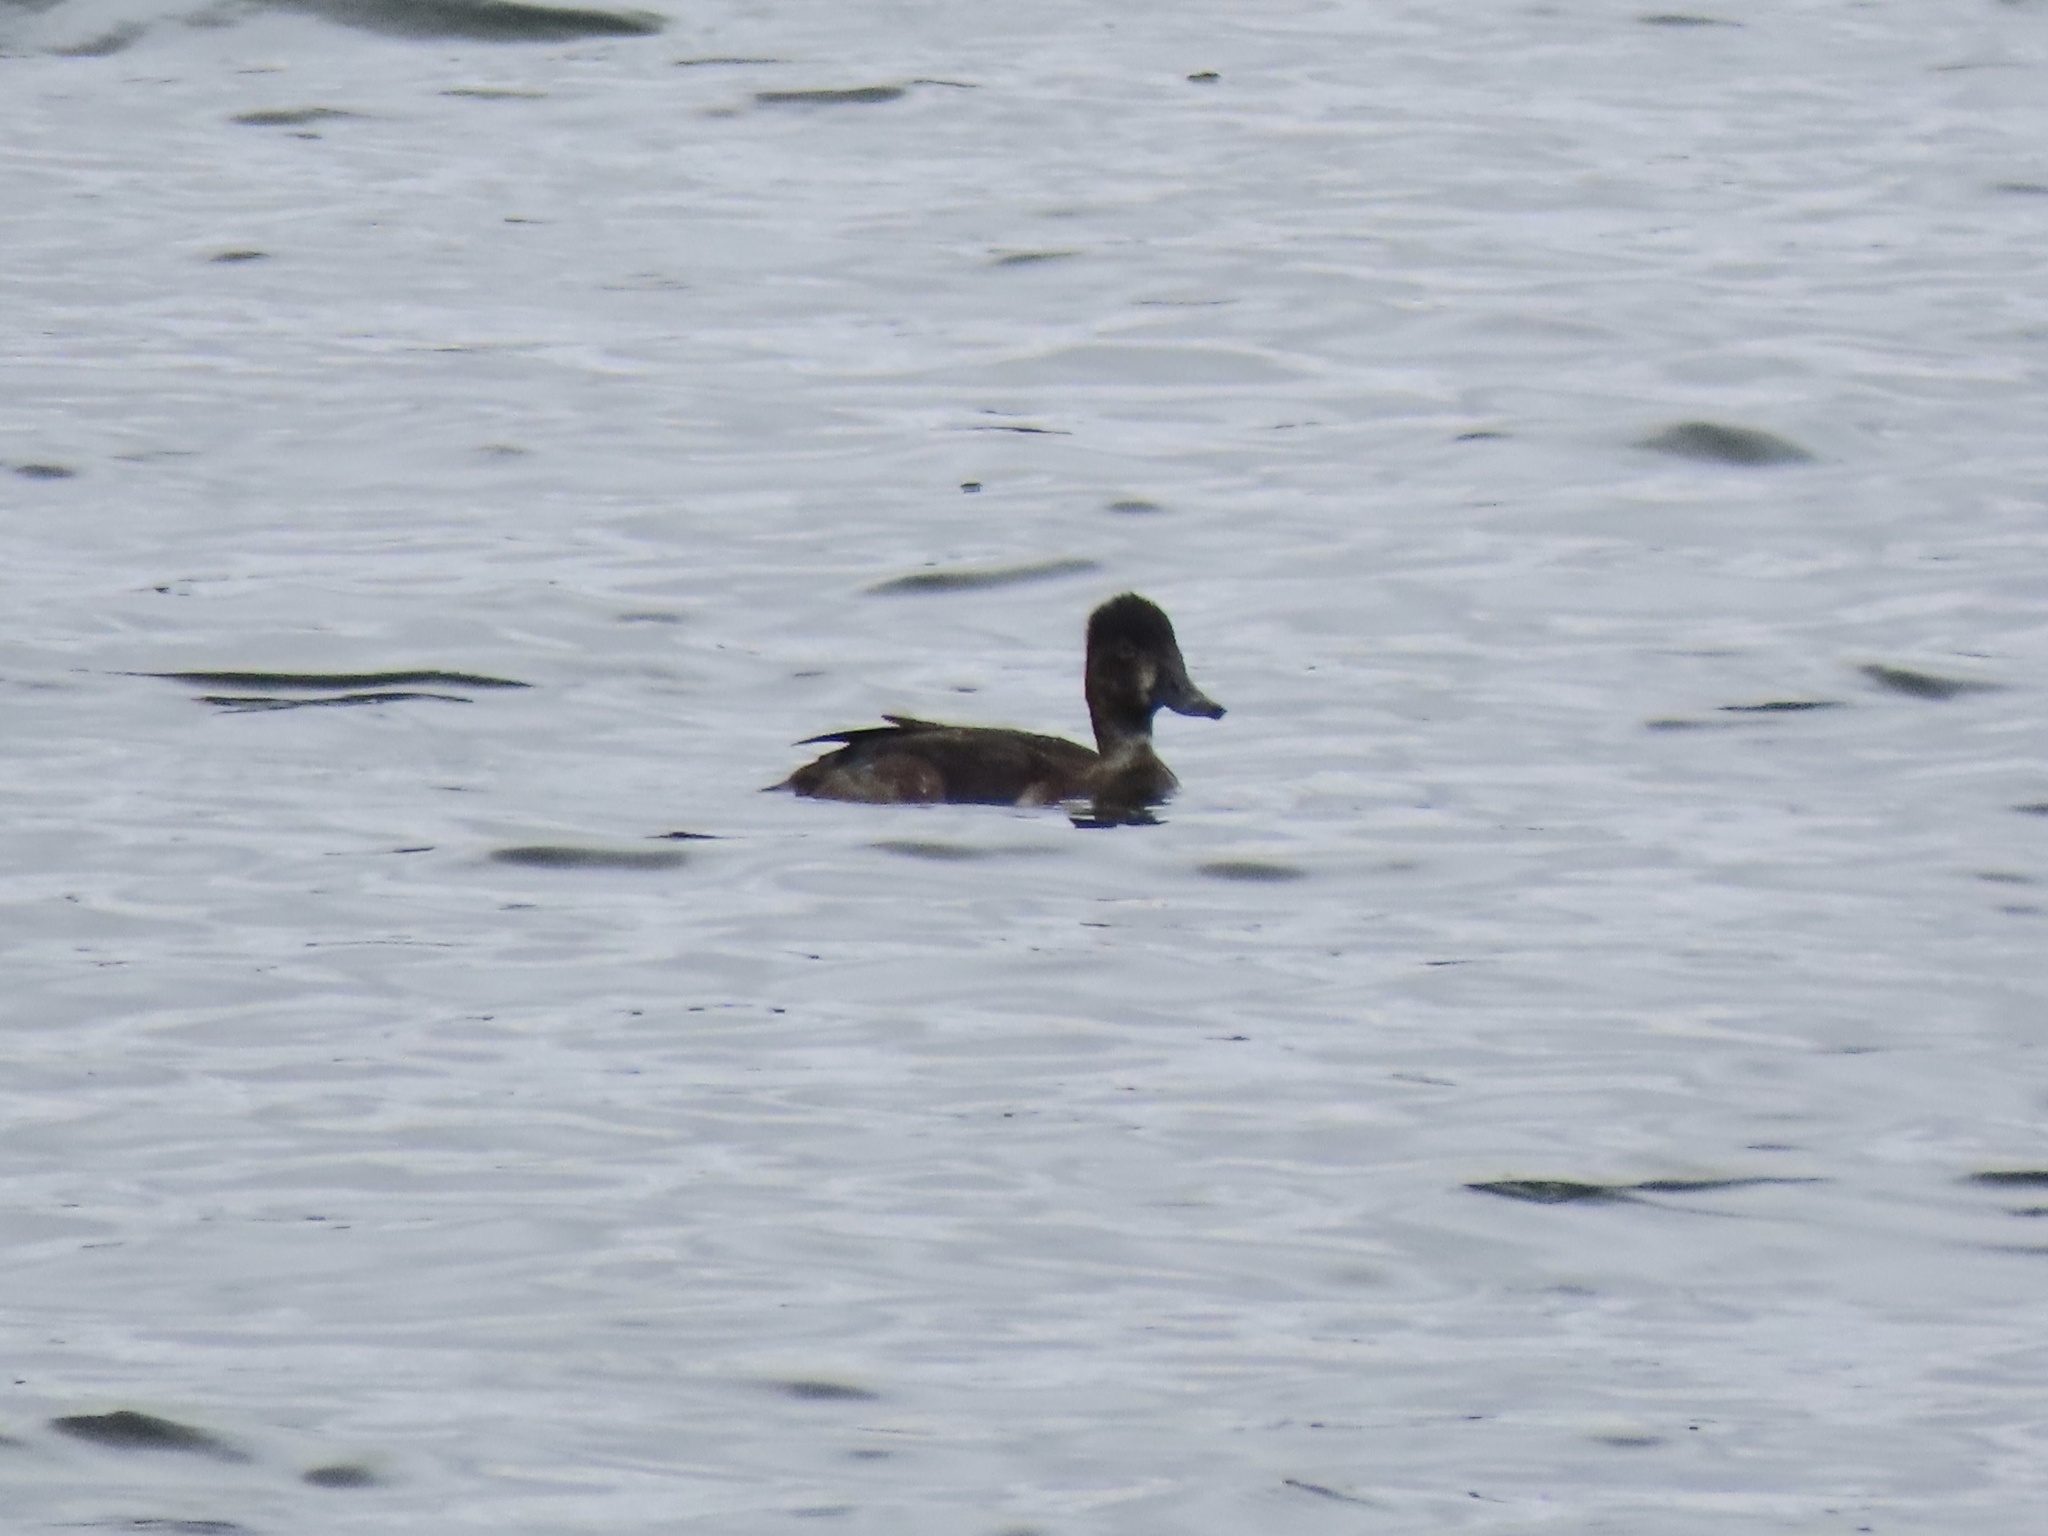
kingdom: Animalia
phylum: Chordata
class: Aves
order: Anseriformes
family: Anatidae
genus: Aythya
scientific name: Aythya collaris
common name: Ring-necked duck
